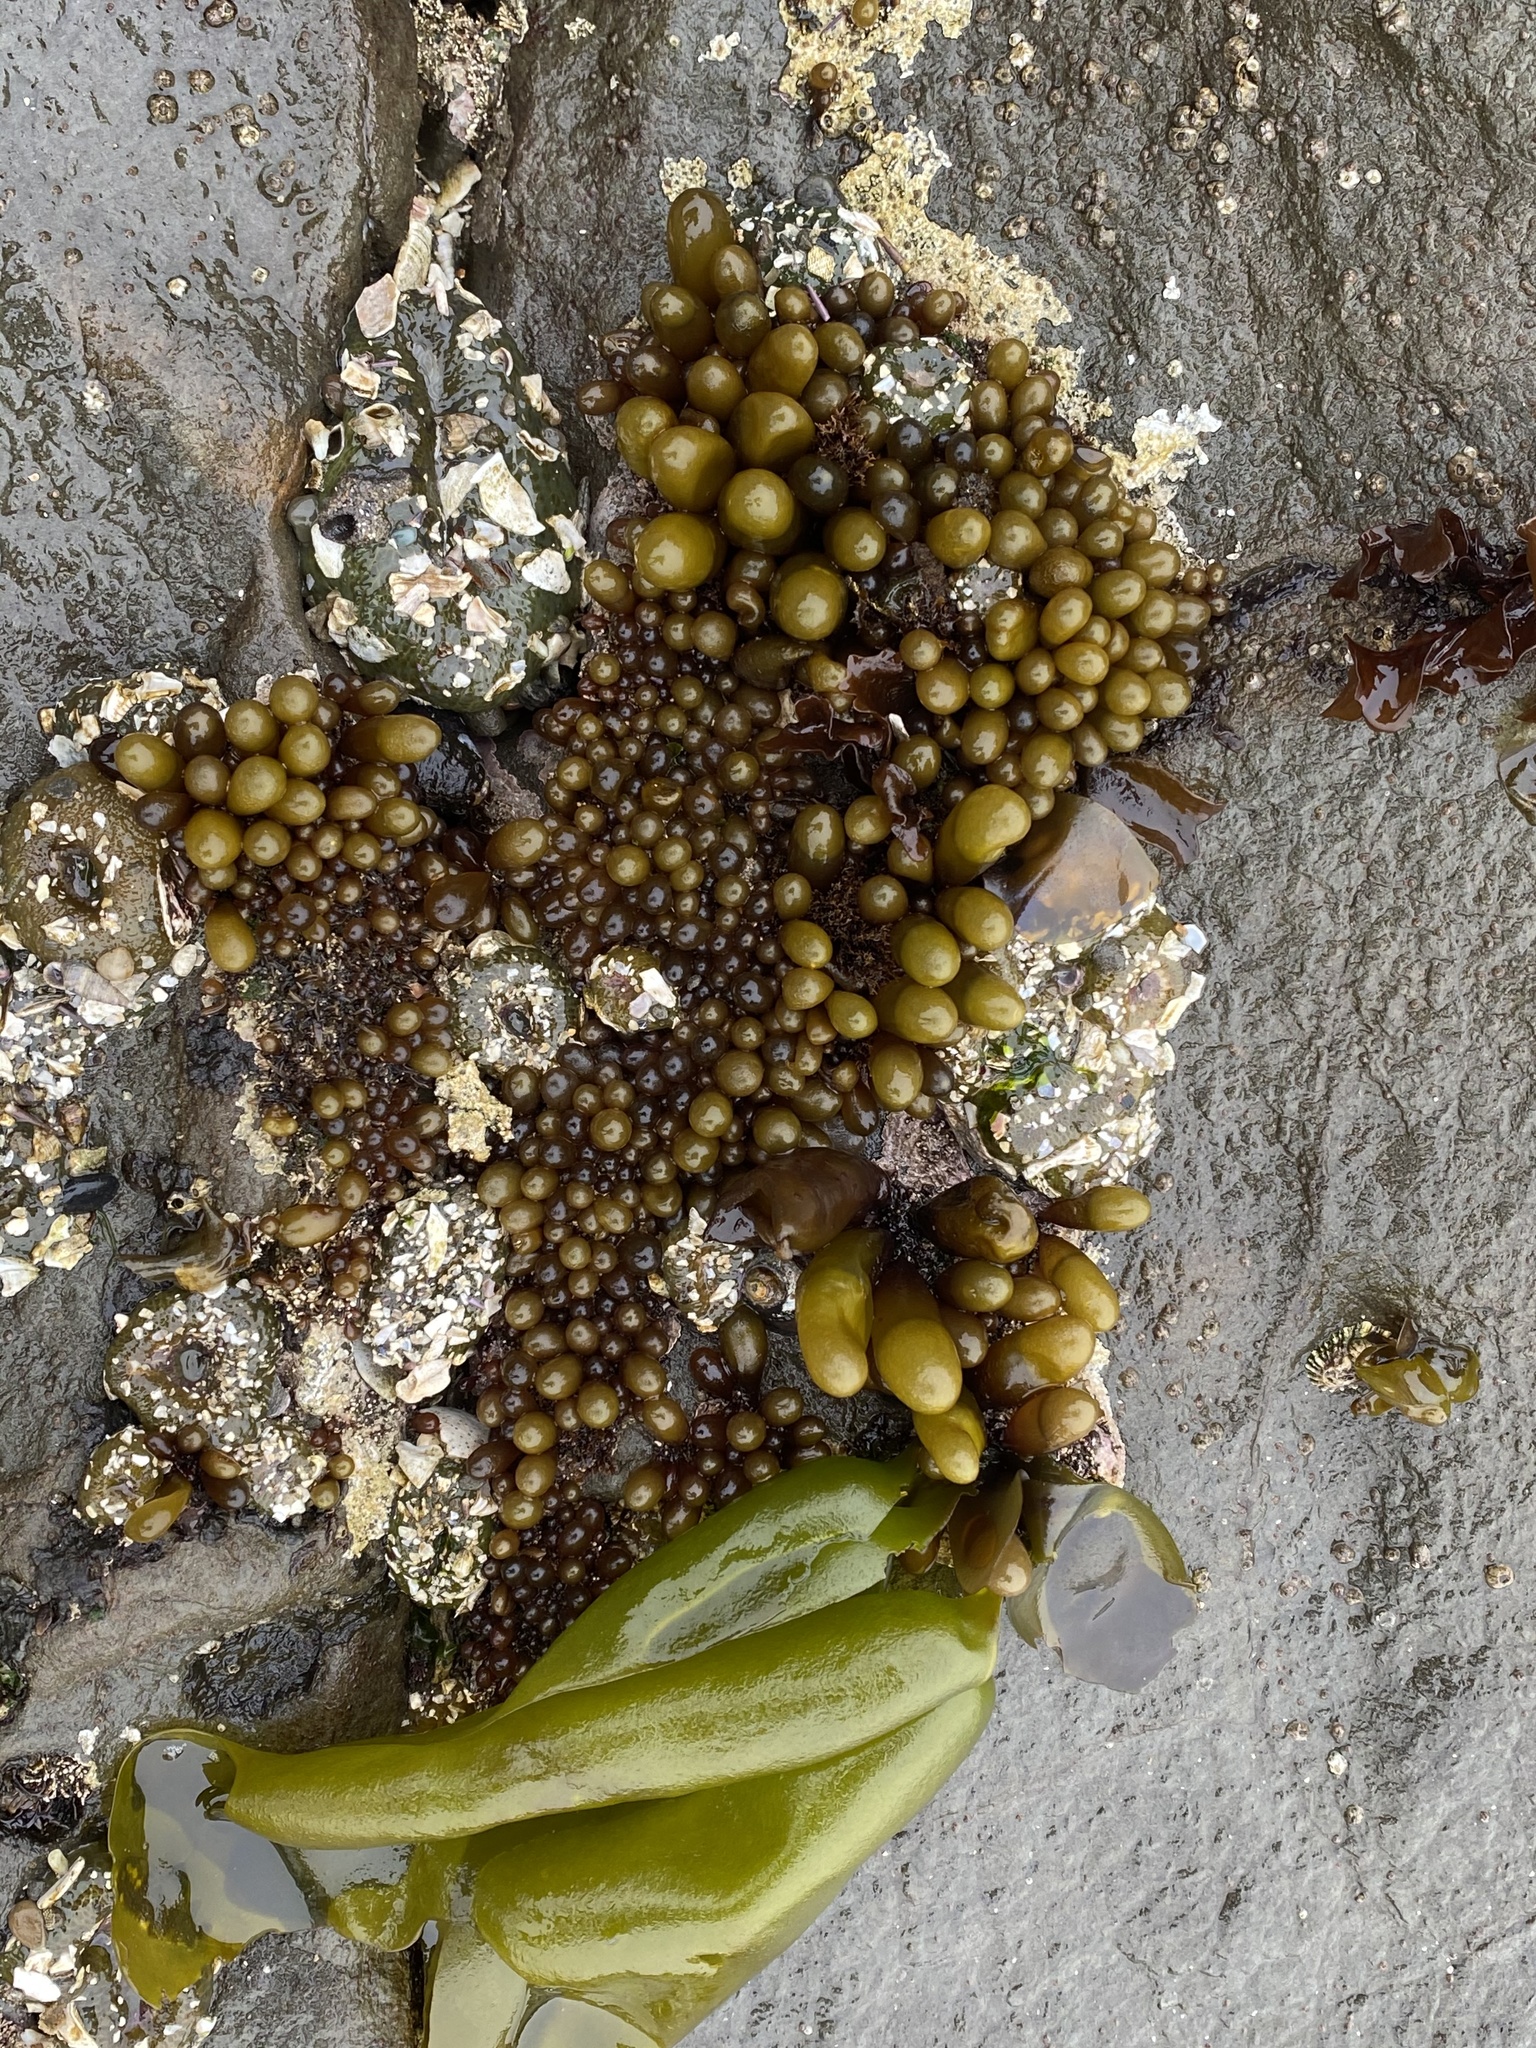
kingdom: Plantae
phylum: Rhodophyta
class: Florideophyceae
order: Palmariales
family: Palmariaceae
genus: Halosaccion
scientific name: Halosaccion glandiforme
